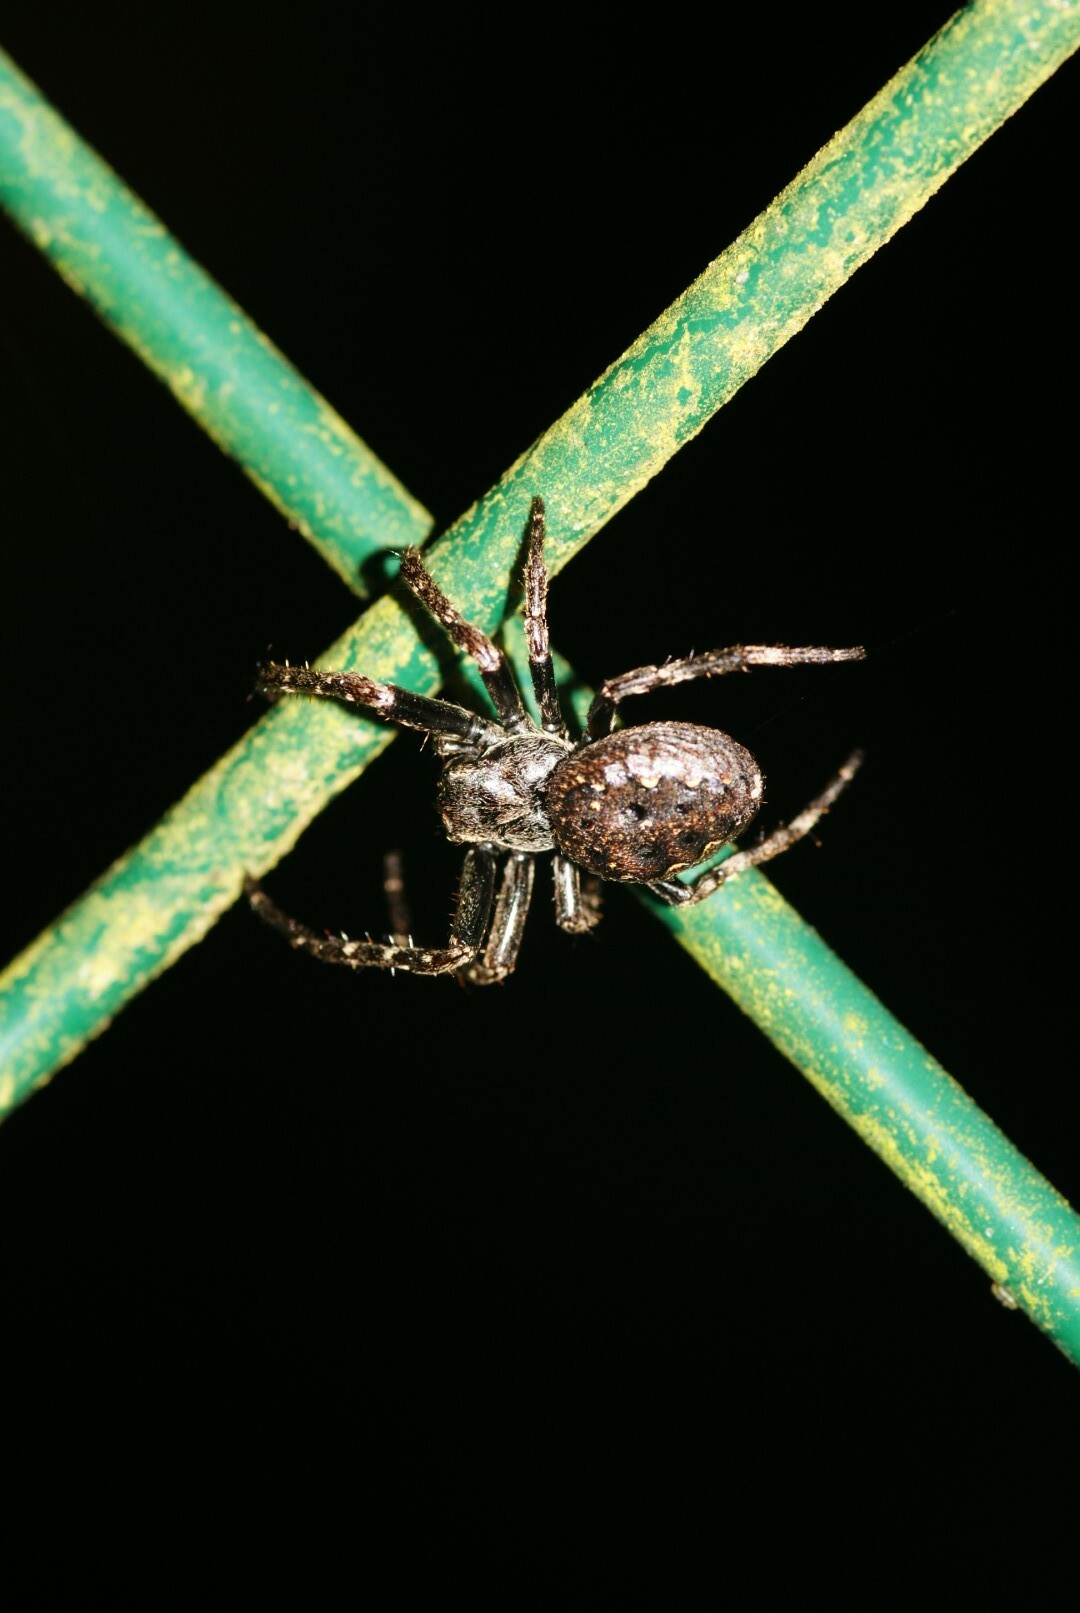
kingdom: Animalia
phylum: Arthropoda
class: Arachnida
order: Araneae
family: Araneidae
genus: Nuctenea
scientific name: Nuctenea umbratica
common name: Toad spider
